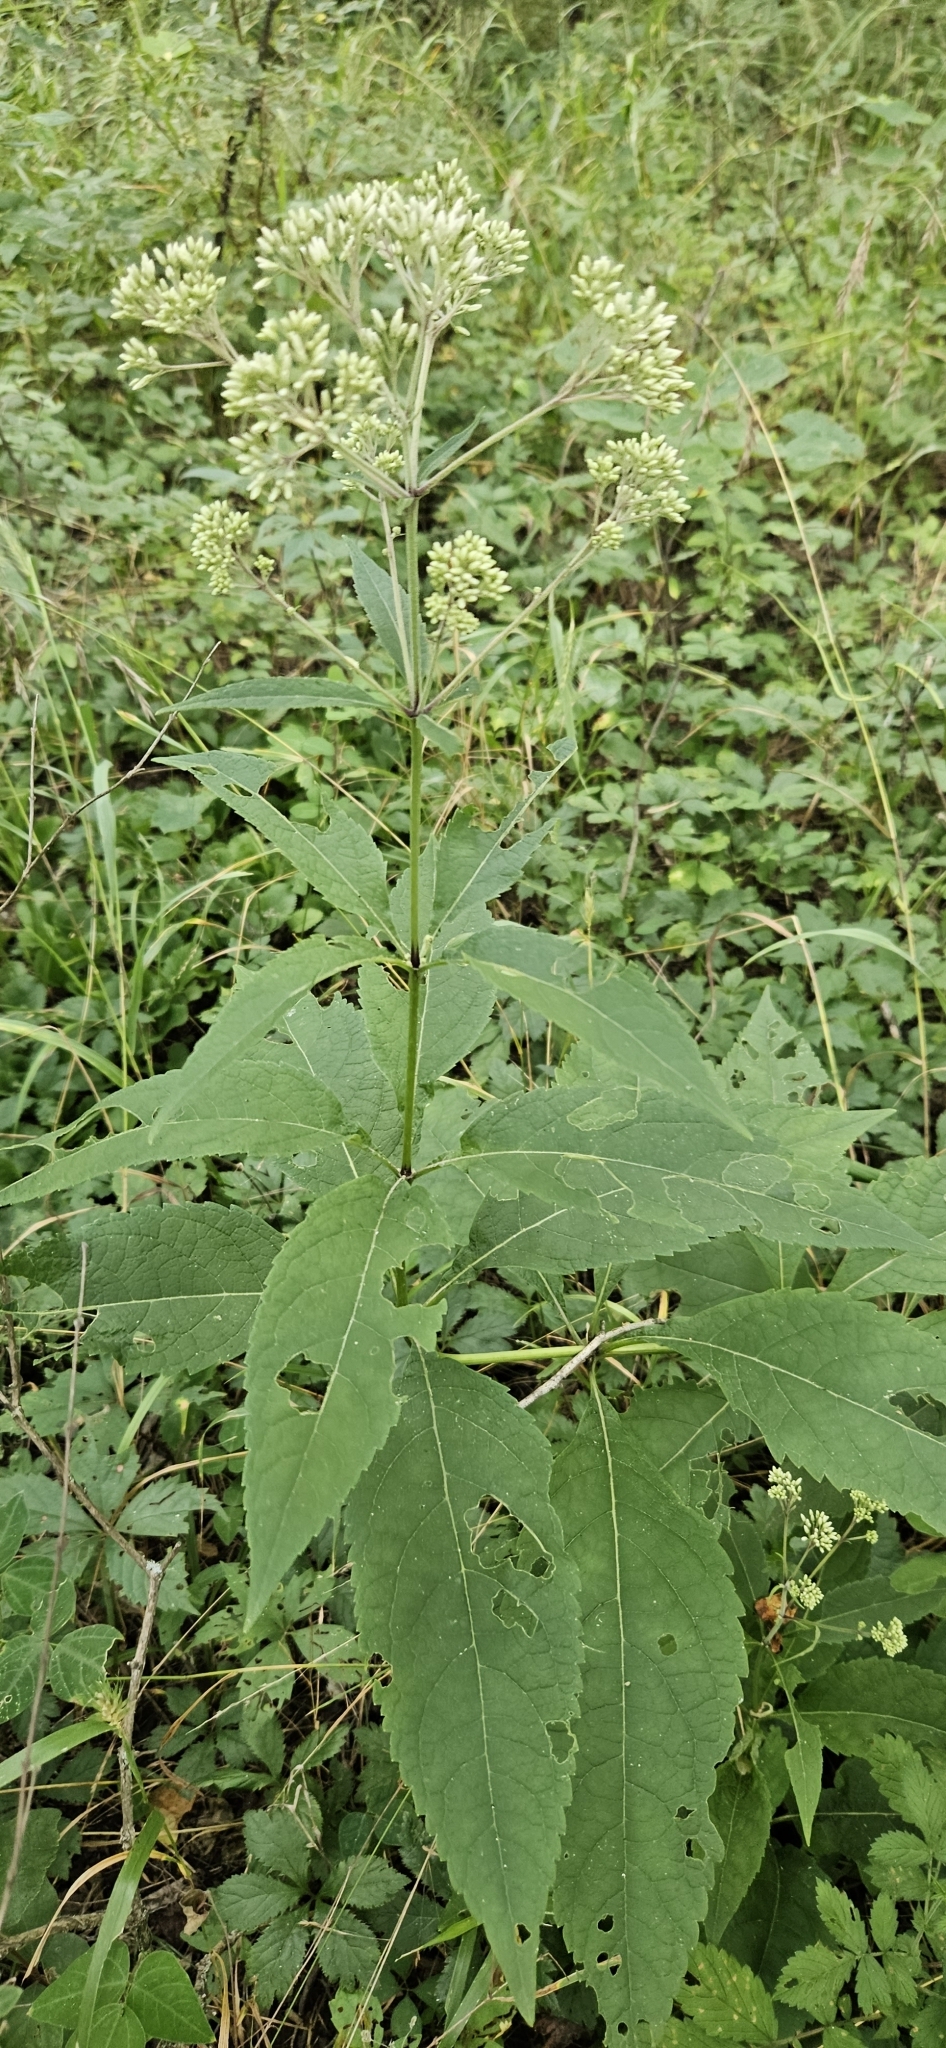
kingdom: Plantae
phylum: Tracheophyta
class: Magnoliopsida
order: Asterales
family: Asteraceae
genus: Eutrochium
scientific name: Eutrochium purpureum
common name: Gravelroot
